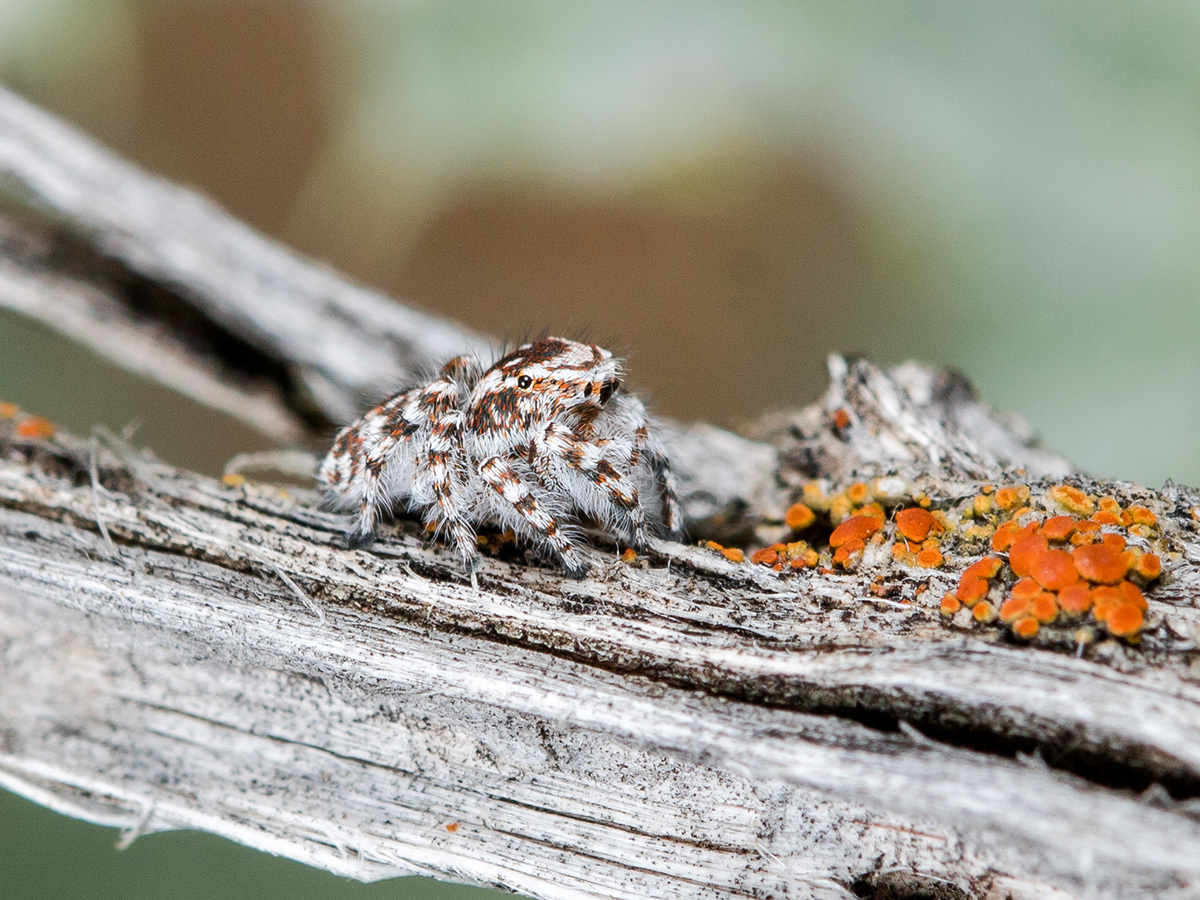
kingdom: Animalia
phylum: Arthropoda
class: Arachnida
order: Araneae
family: Salticidae
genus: Pseudomogrus
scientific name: Pseudomogrus dalaensis
